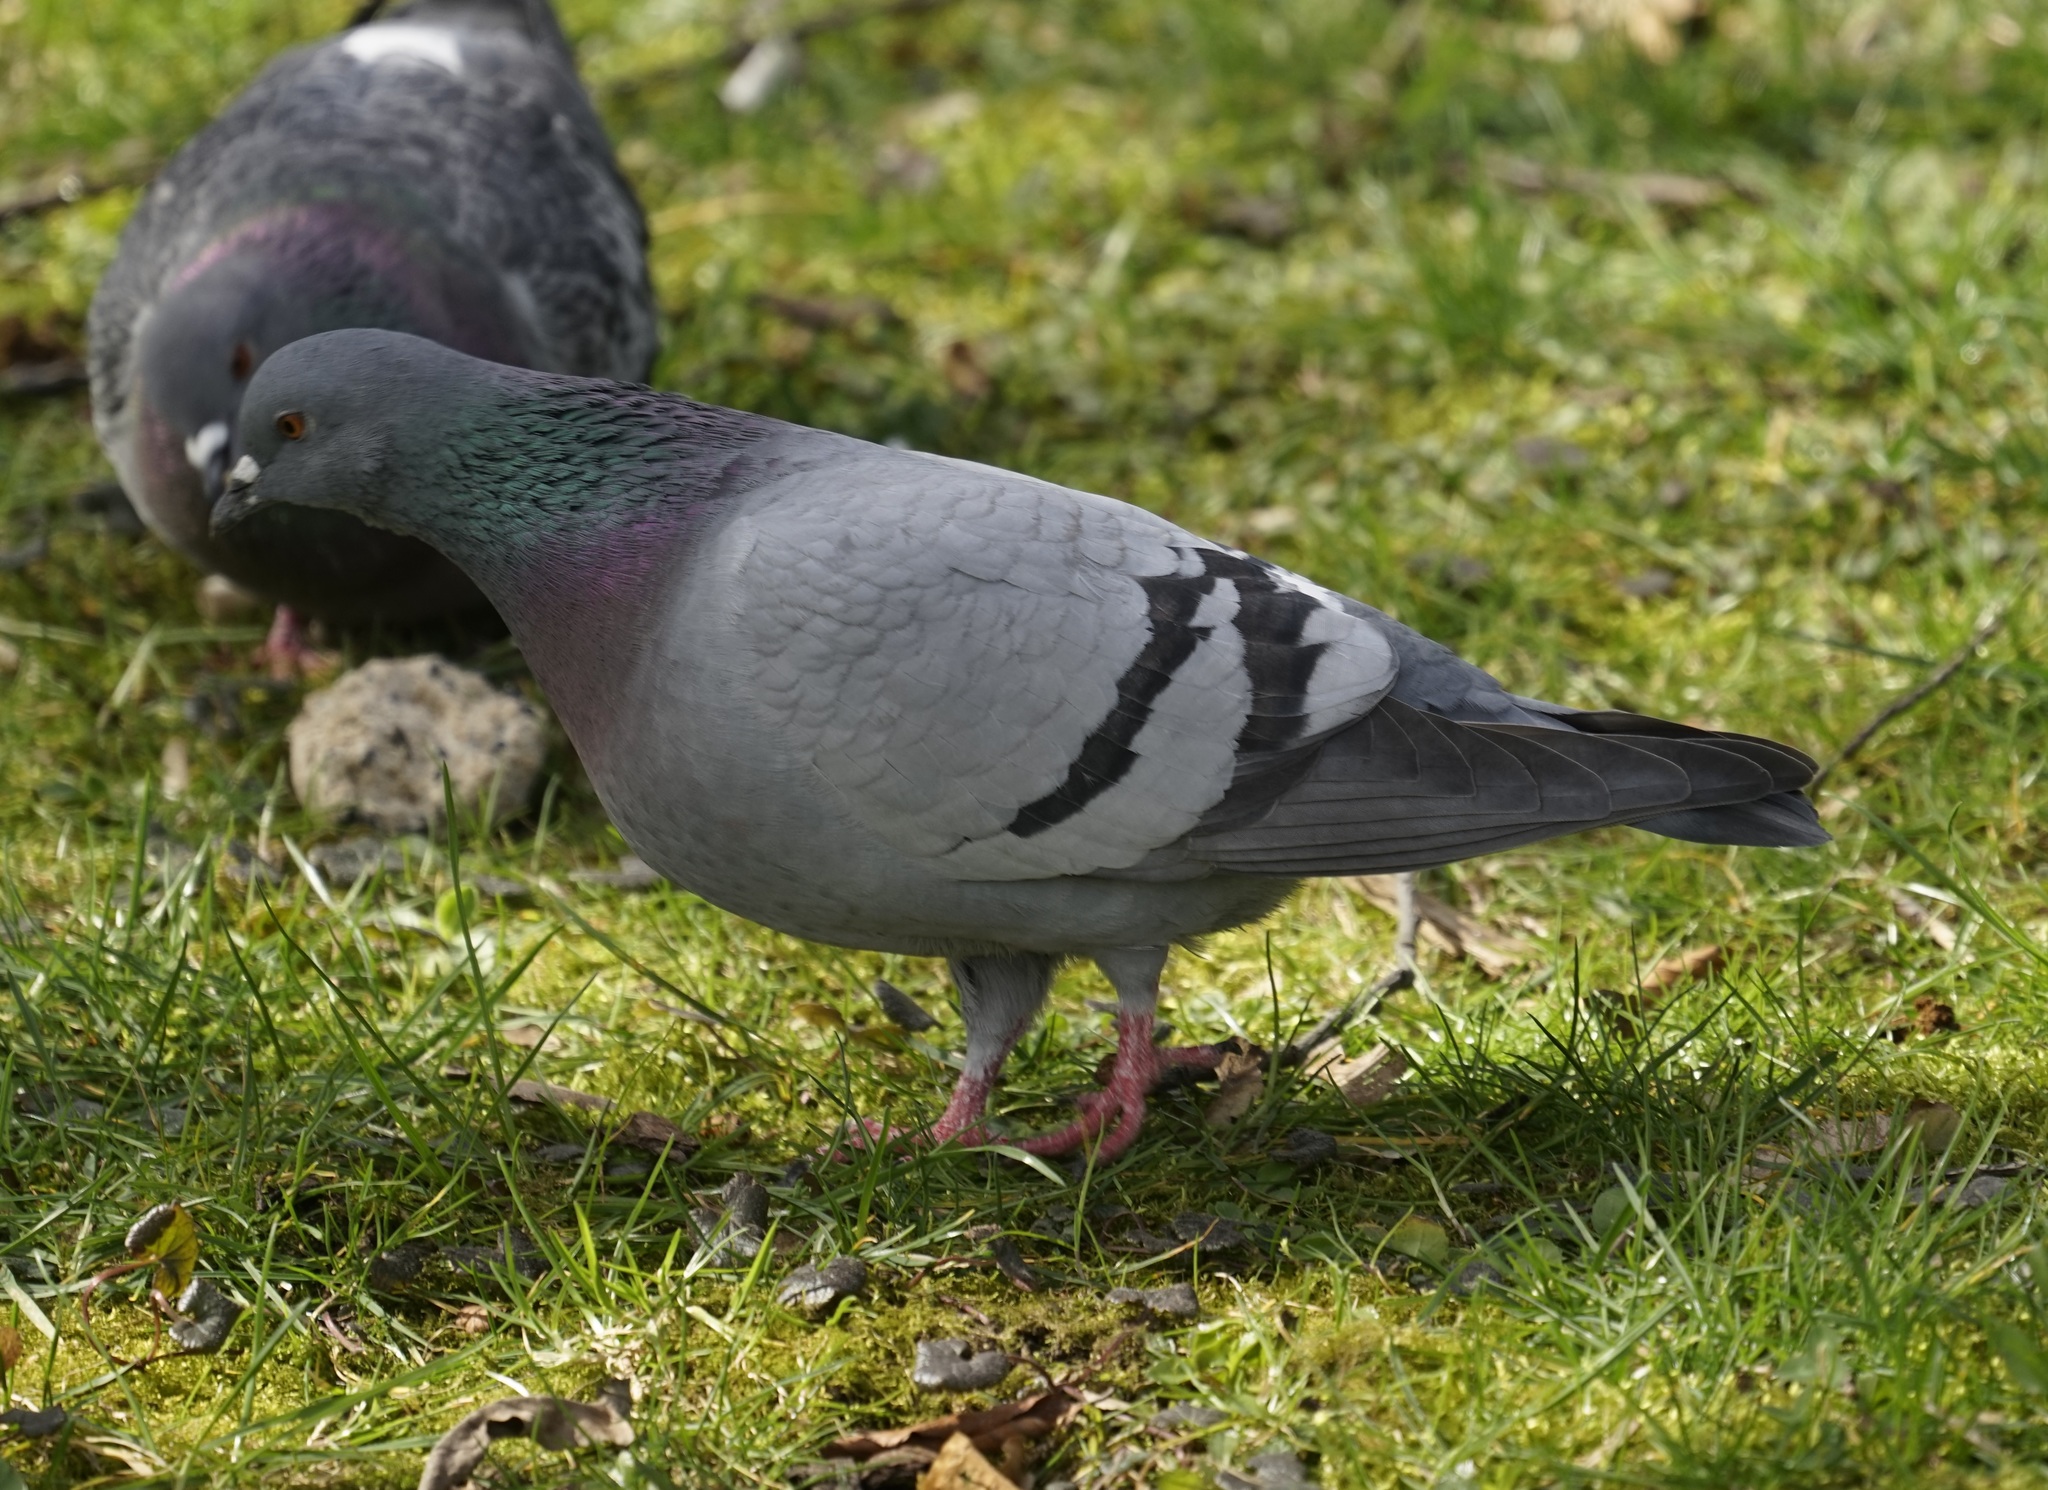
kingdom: Animalia
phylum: Chordata
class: Aves
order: Columbiformes
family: Columbidae
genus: Columba
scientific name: Columba livia
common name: Rock pigeon
